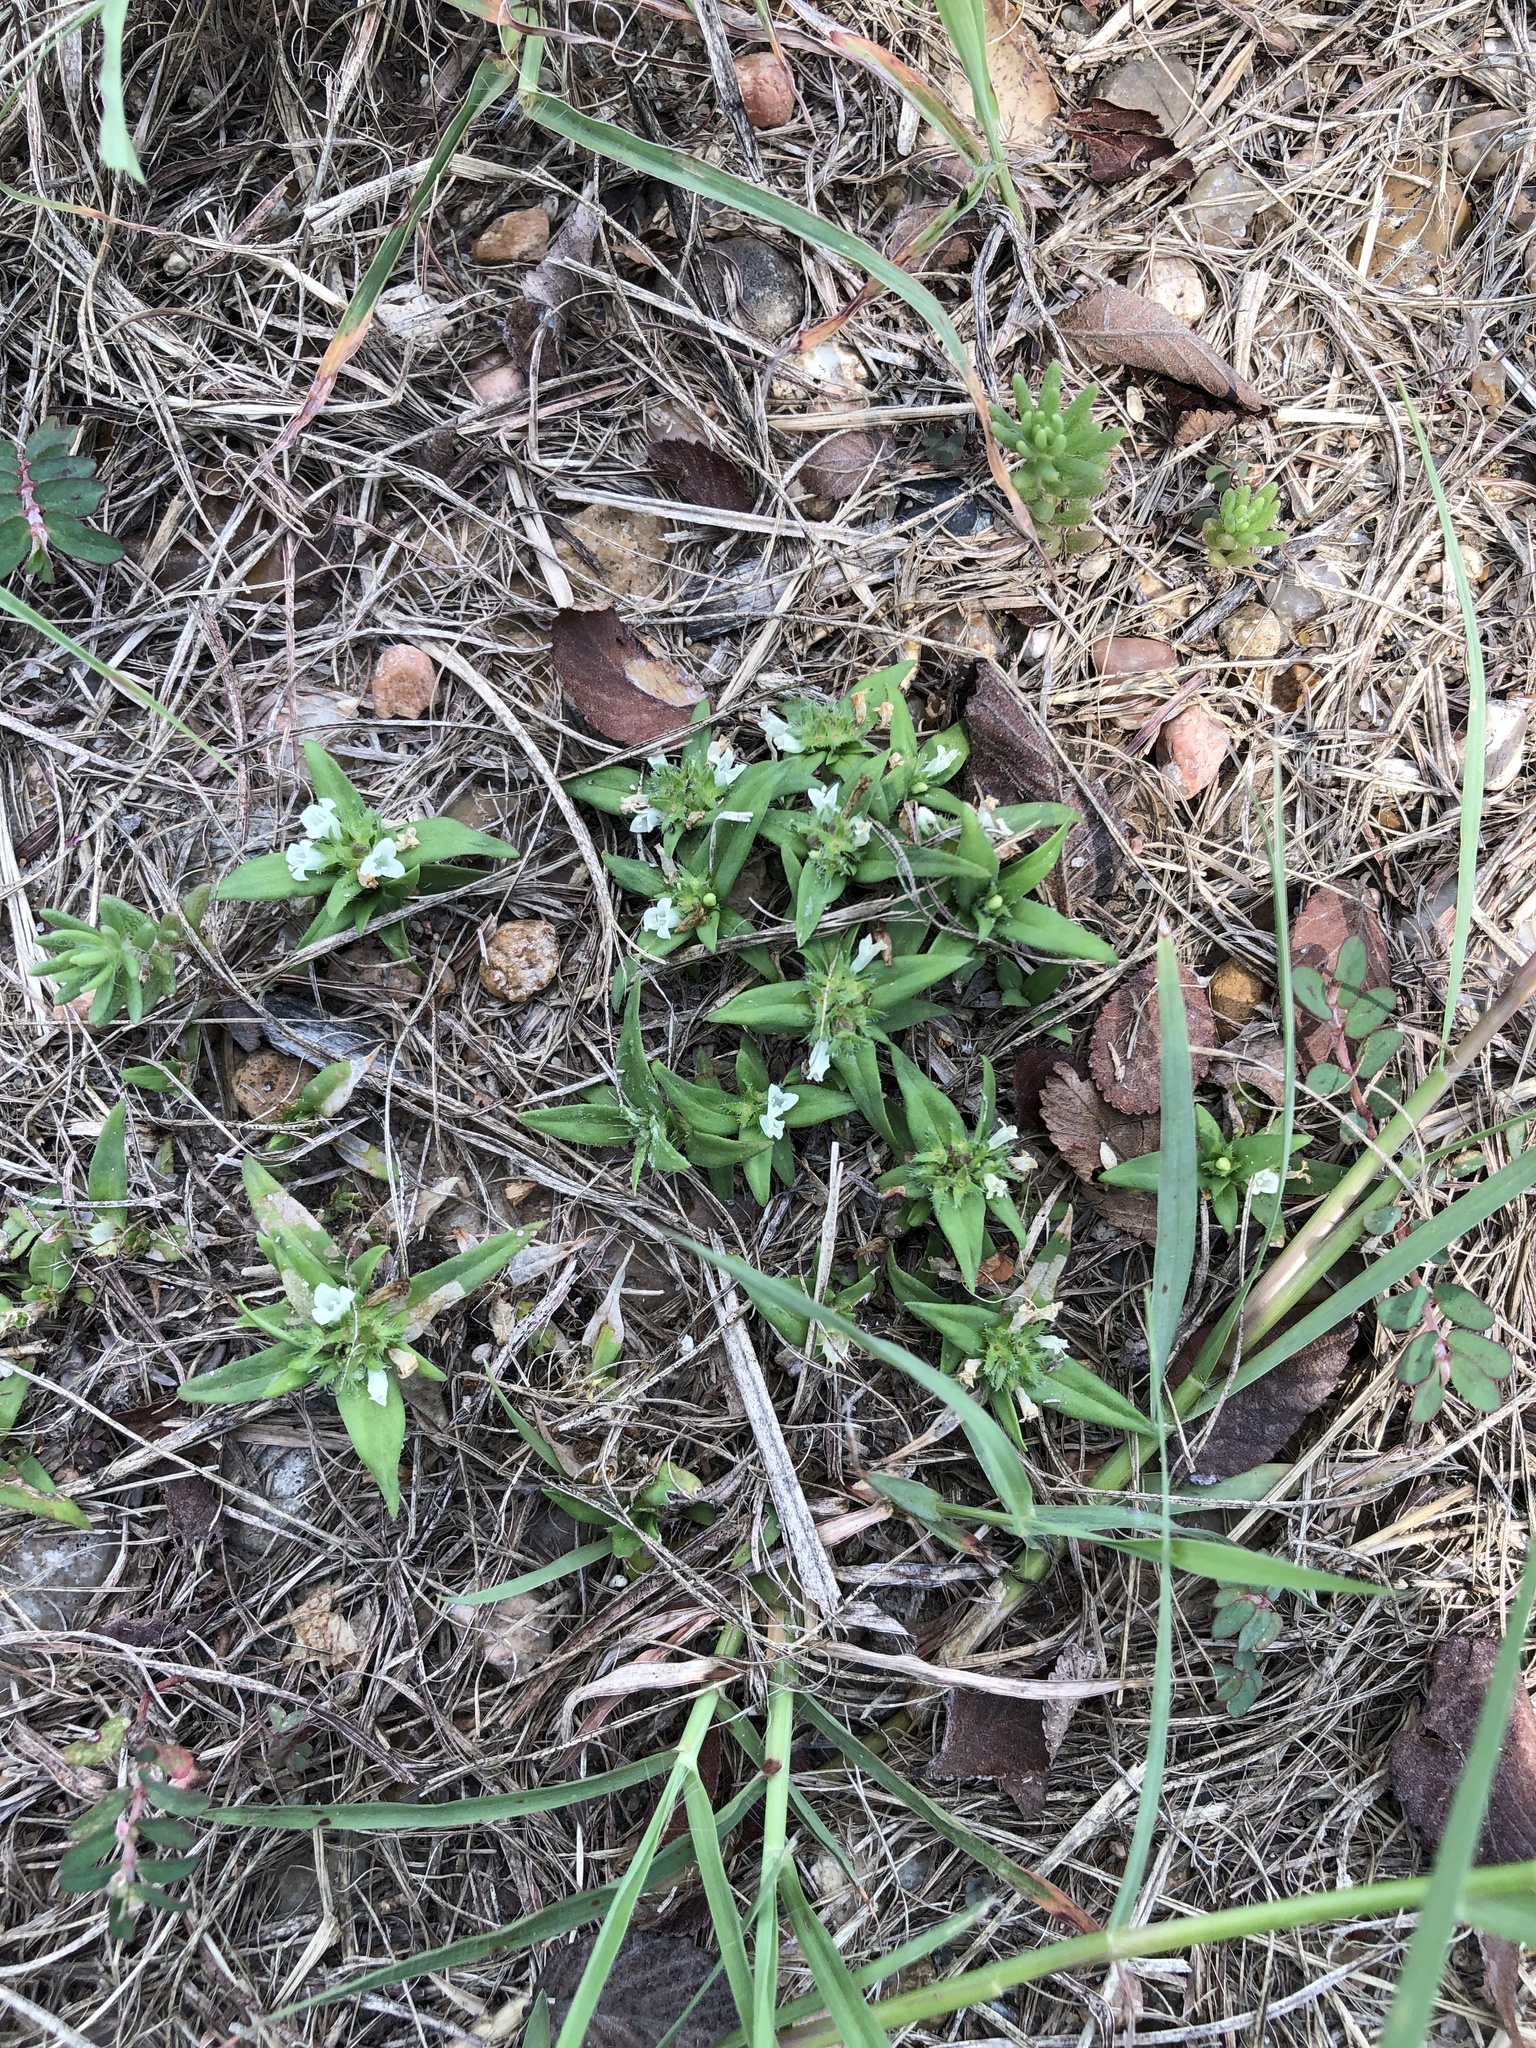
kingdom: Plantae
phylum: Tracheophyta
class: Magnoliopsida
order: Gentianales
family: Rubiaceae
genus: Richardia
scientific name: Richardia tricocca
